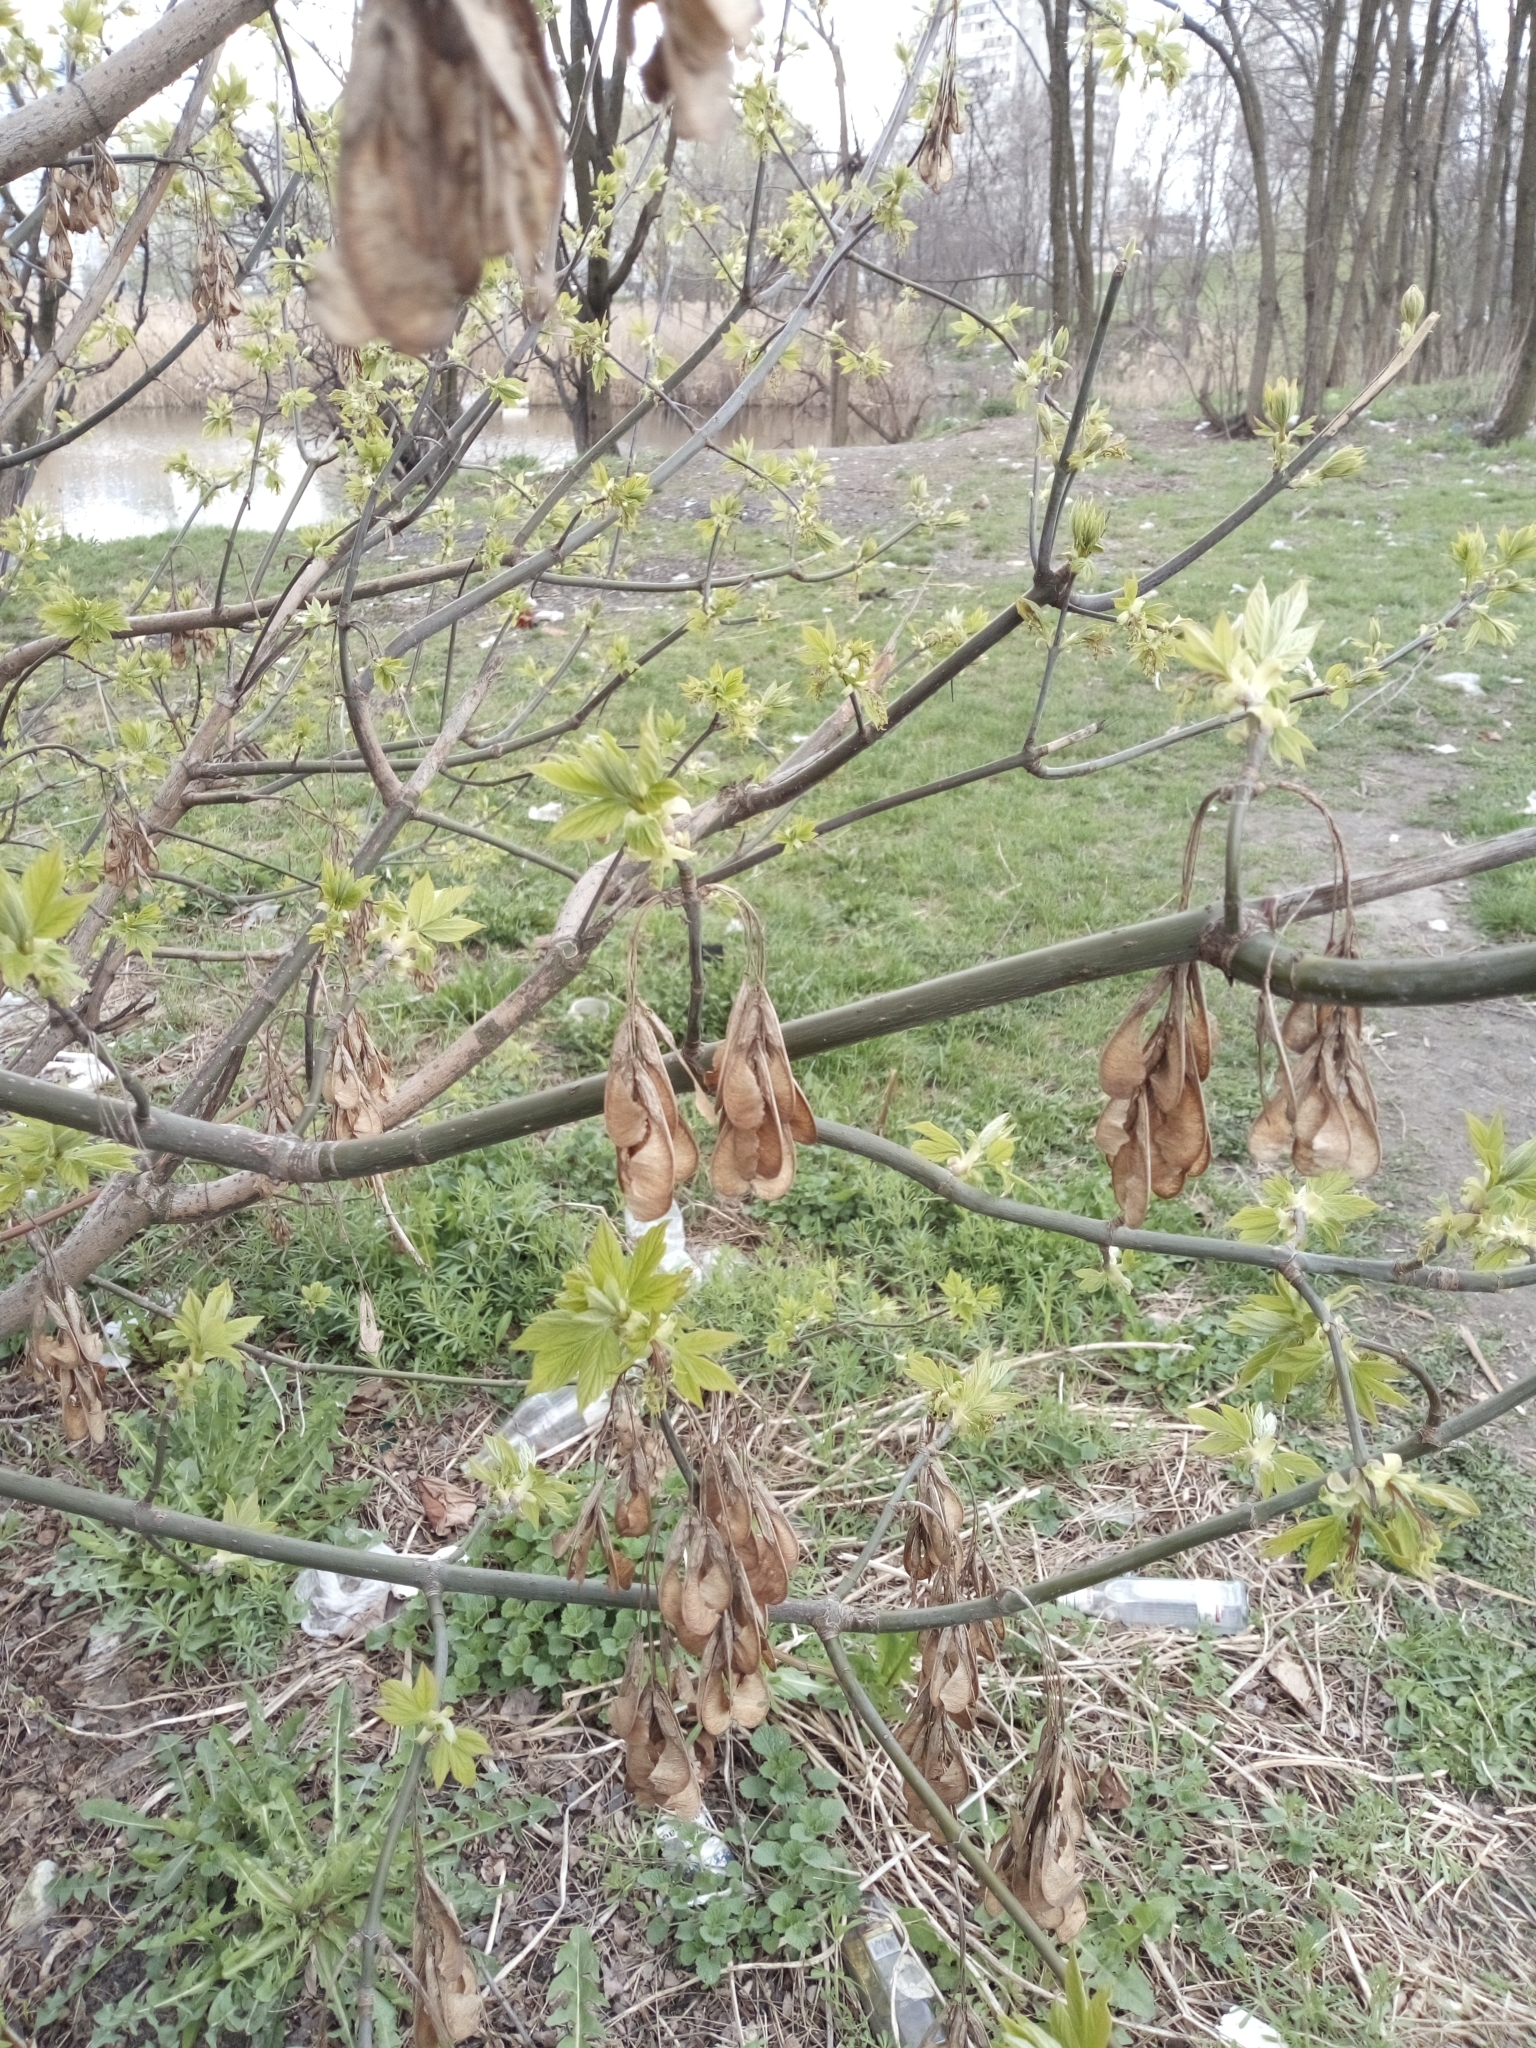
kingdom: Plantae
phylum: Tracheophyta
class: Magnoliopsida
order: Sapindales
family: Sapindaceae
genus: Acer
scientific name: Acer negundo
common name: Ashleaf maple
